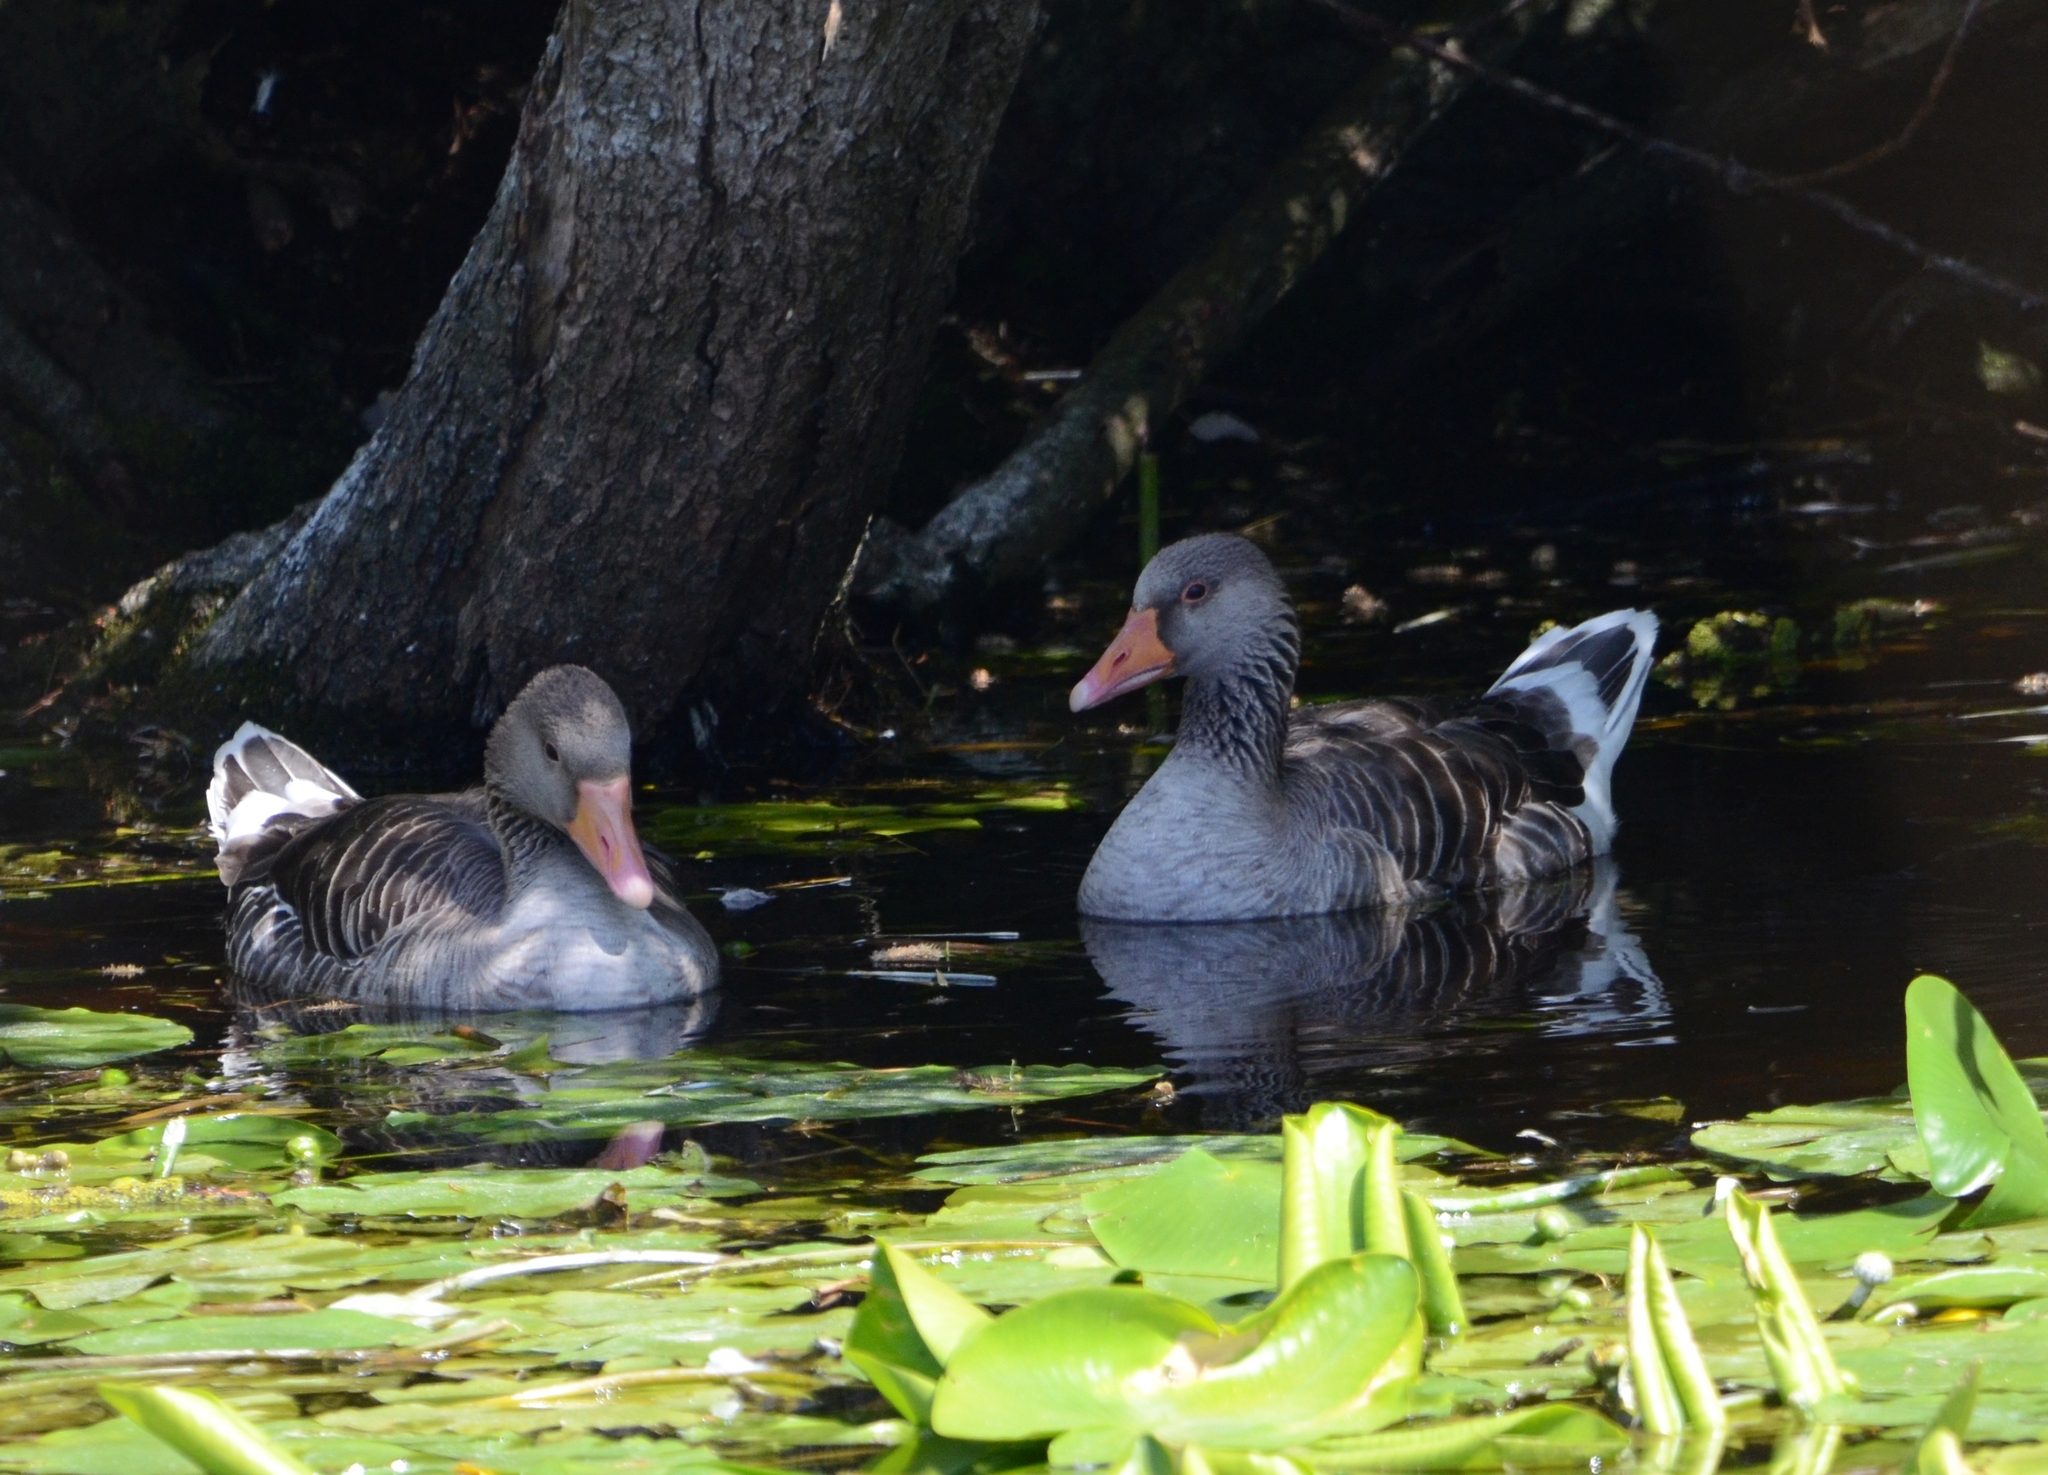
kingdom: Animalia
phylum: Chordata
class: Aves
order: Anseriformes
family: Anatidae
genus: Anser
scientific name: Anser anser
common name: Greylag goose
